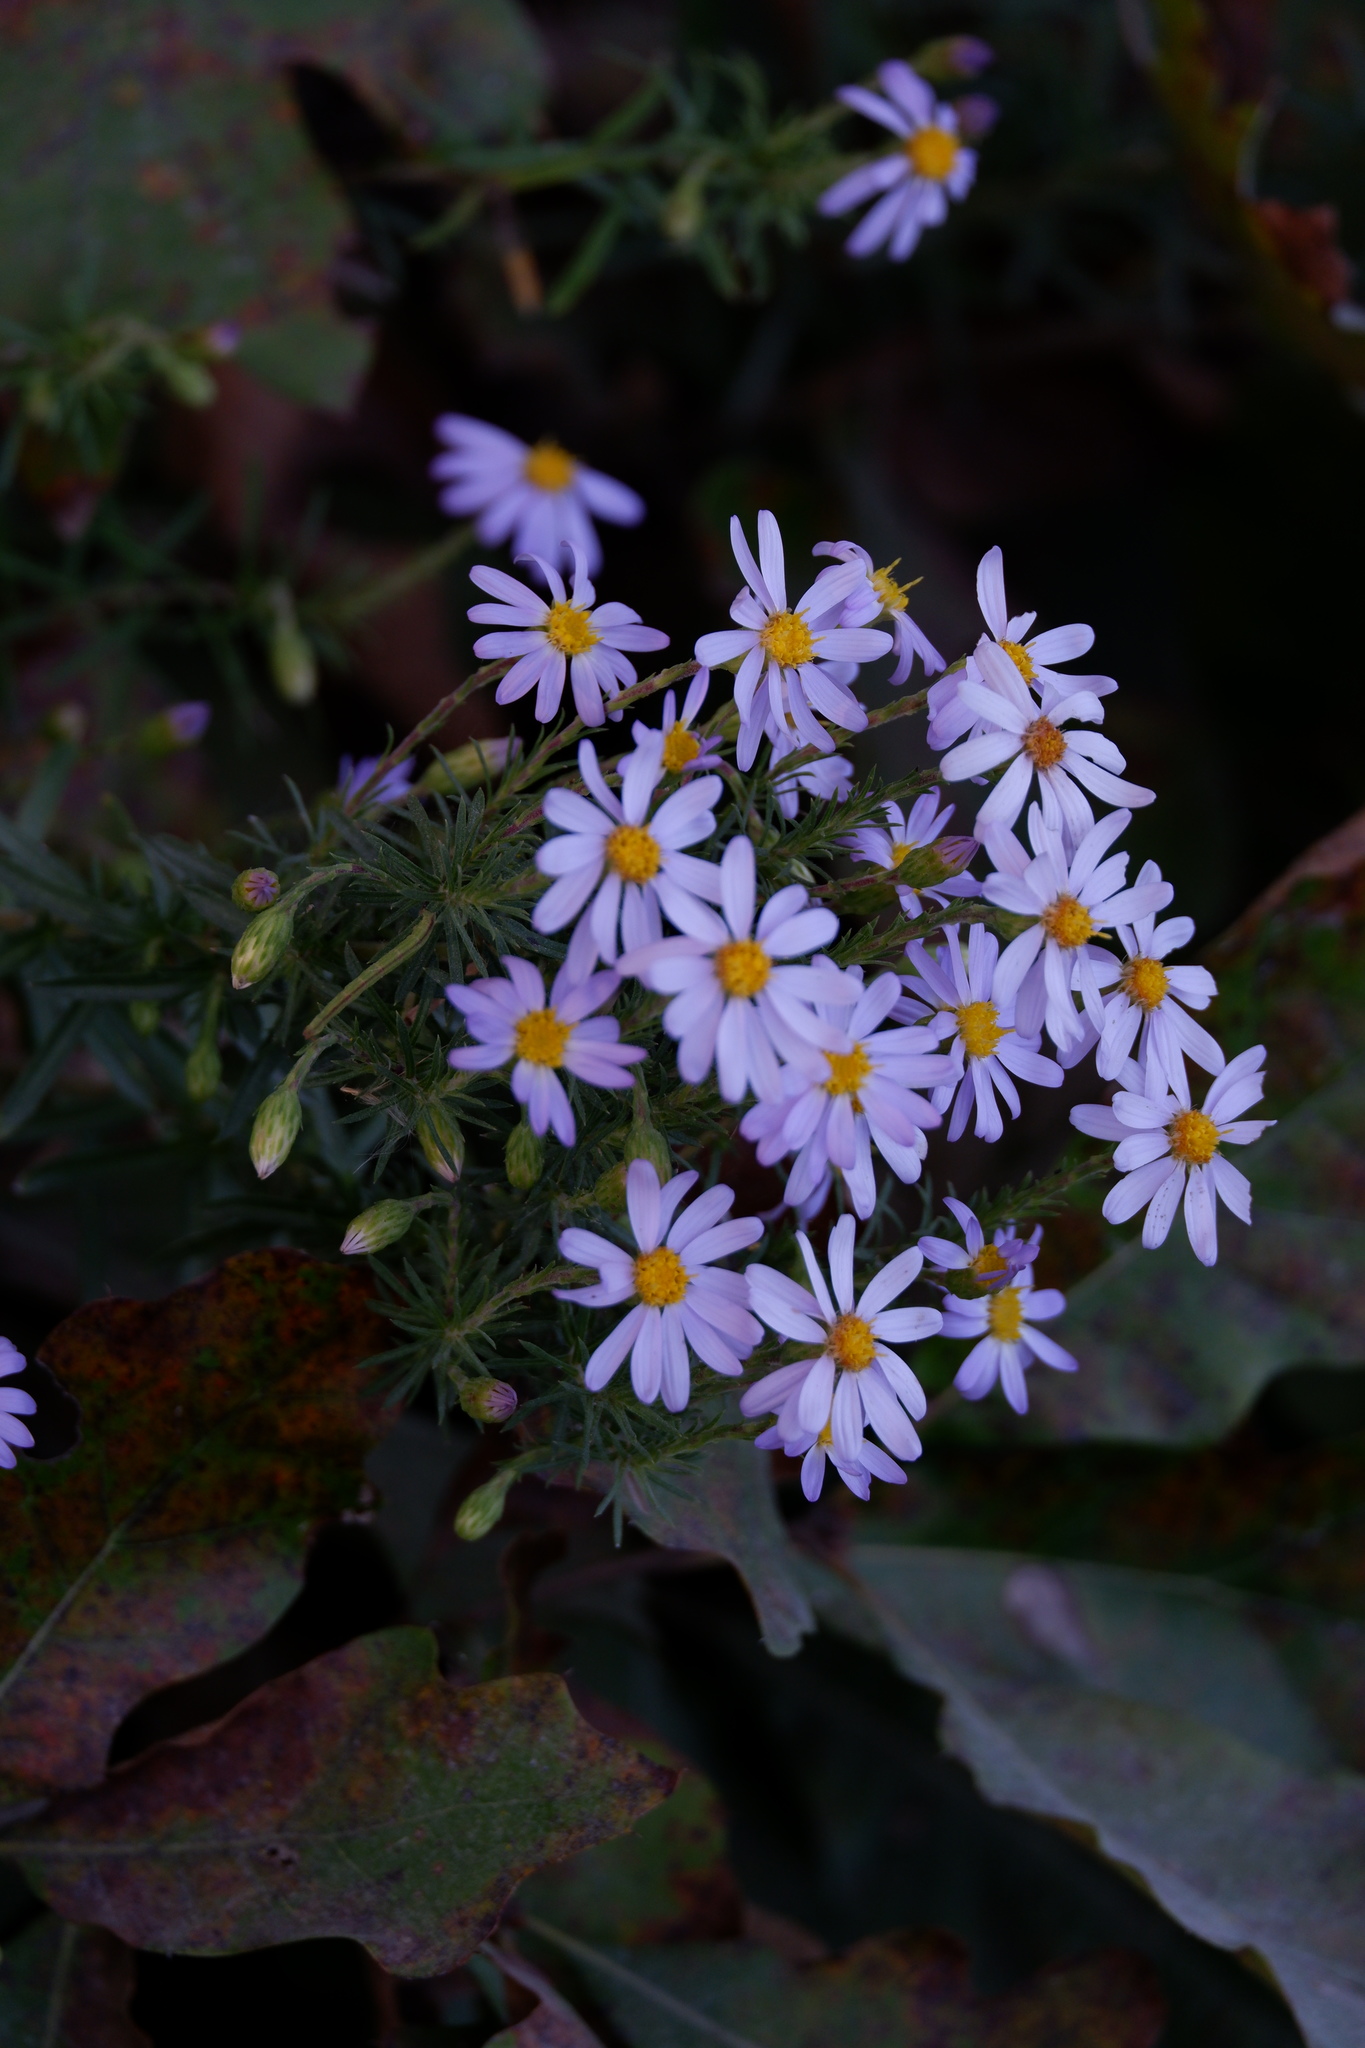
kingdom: Plantae
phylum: Tracheophyta
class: Magnoliopsida
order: Asterales
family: Asteraceae
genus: Ionactis
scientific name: Ionactis linariifolia
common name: Flax-leaf aster
